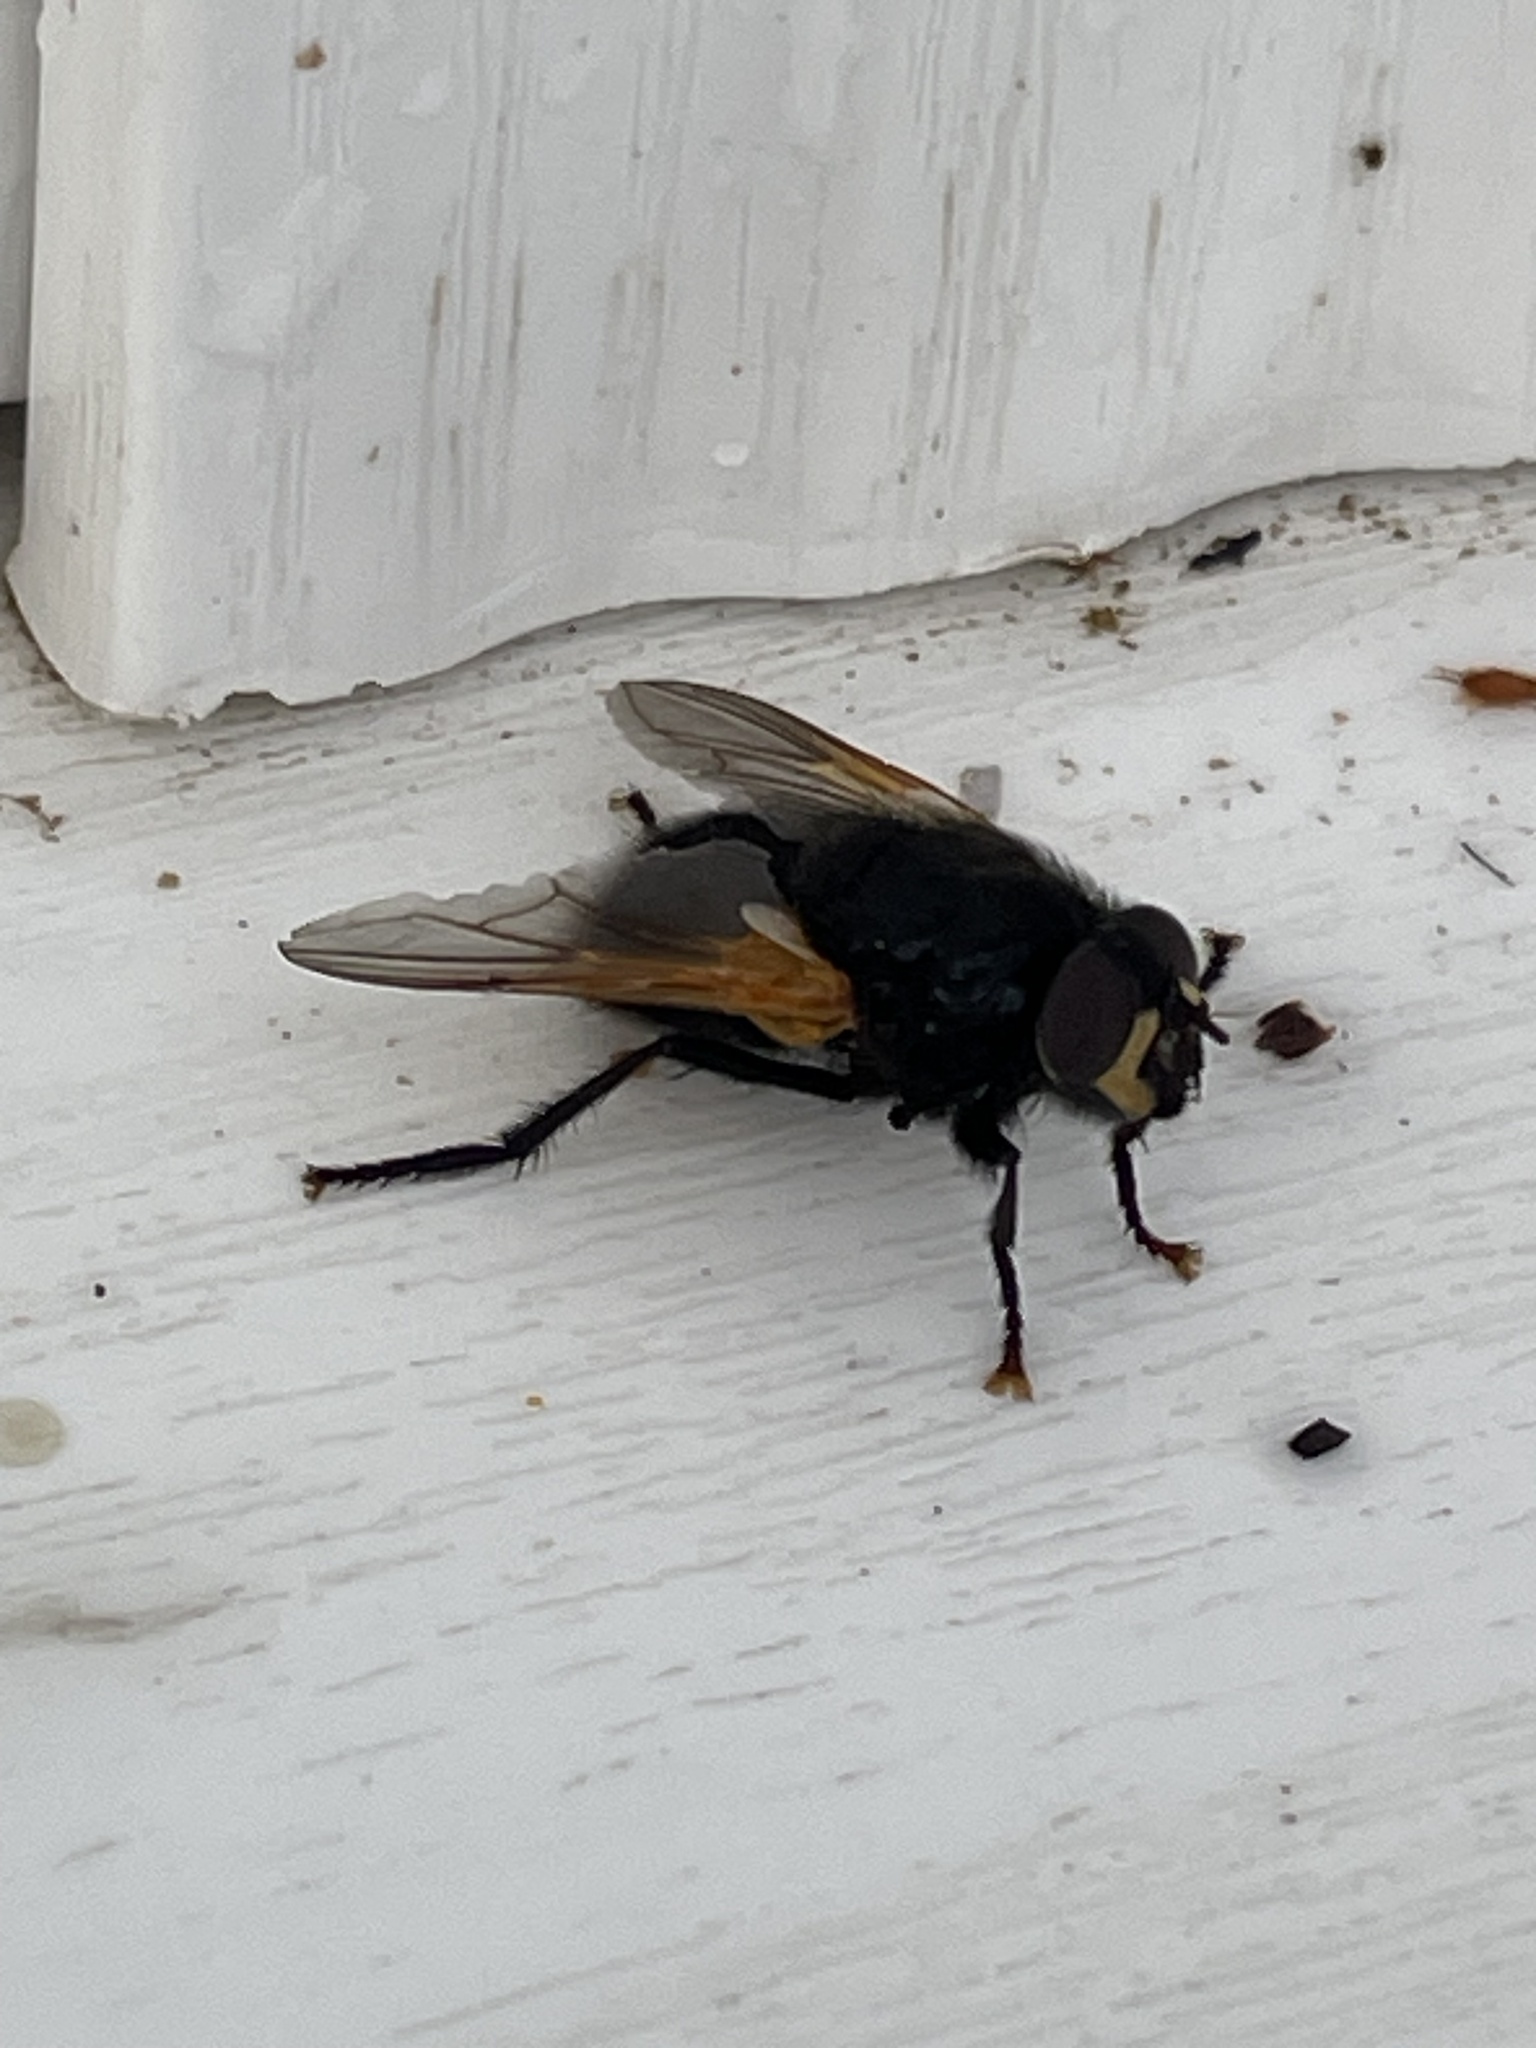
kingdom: Animalia
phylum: Arthropoda
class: Insecta
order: Diptera
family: Muscidae
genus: Mesembrina
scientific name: Mesembrina meridiana
